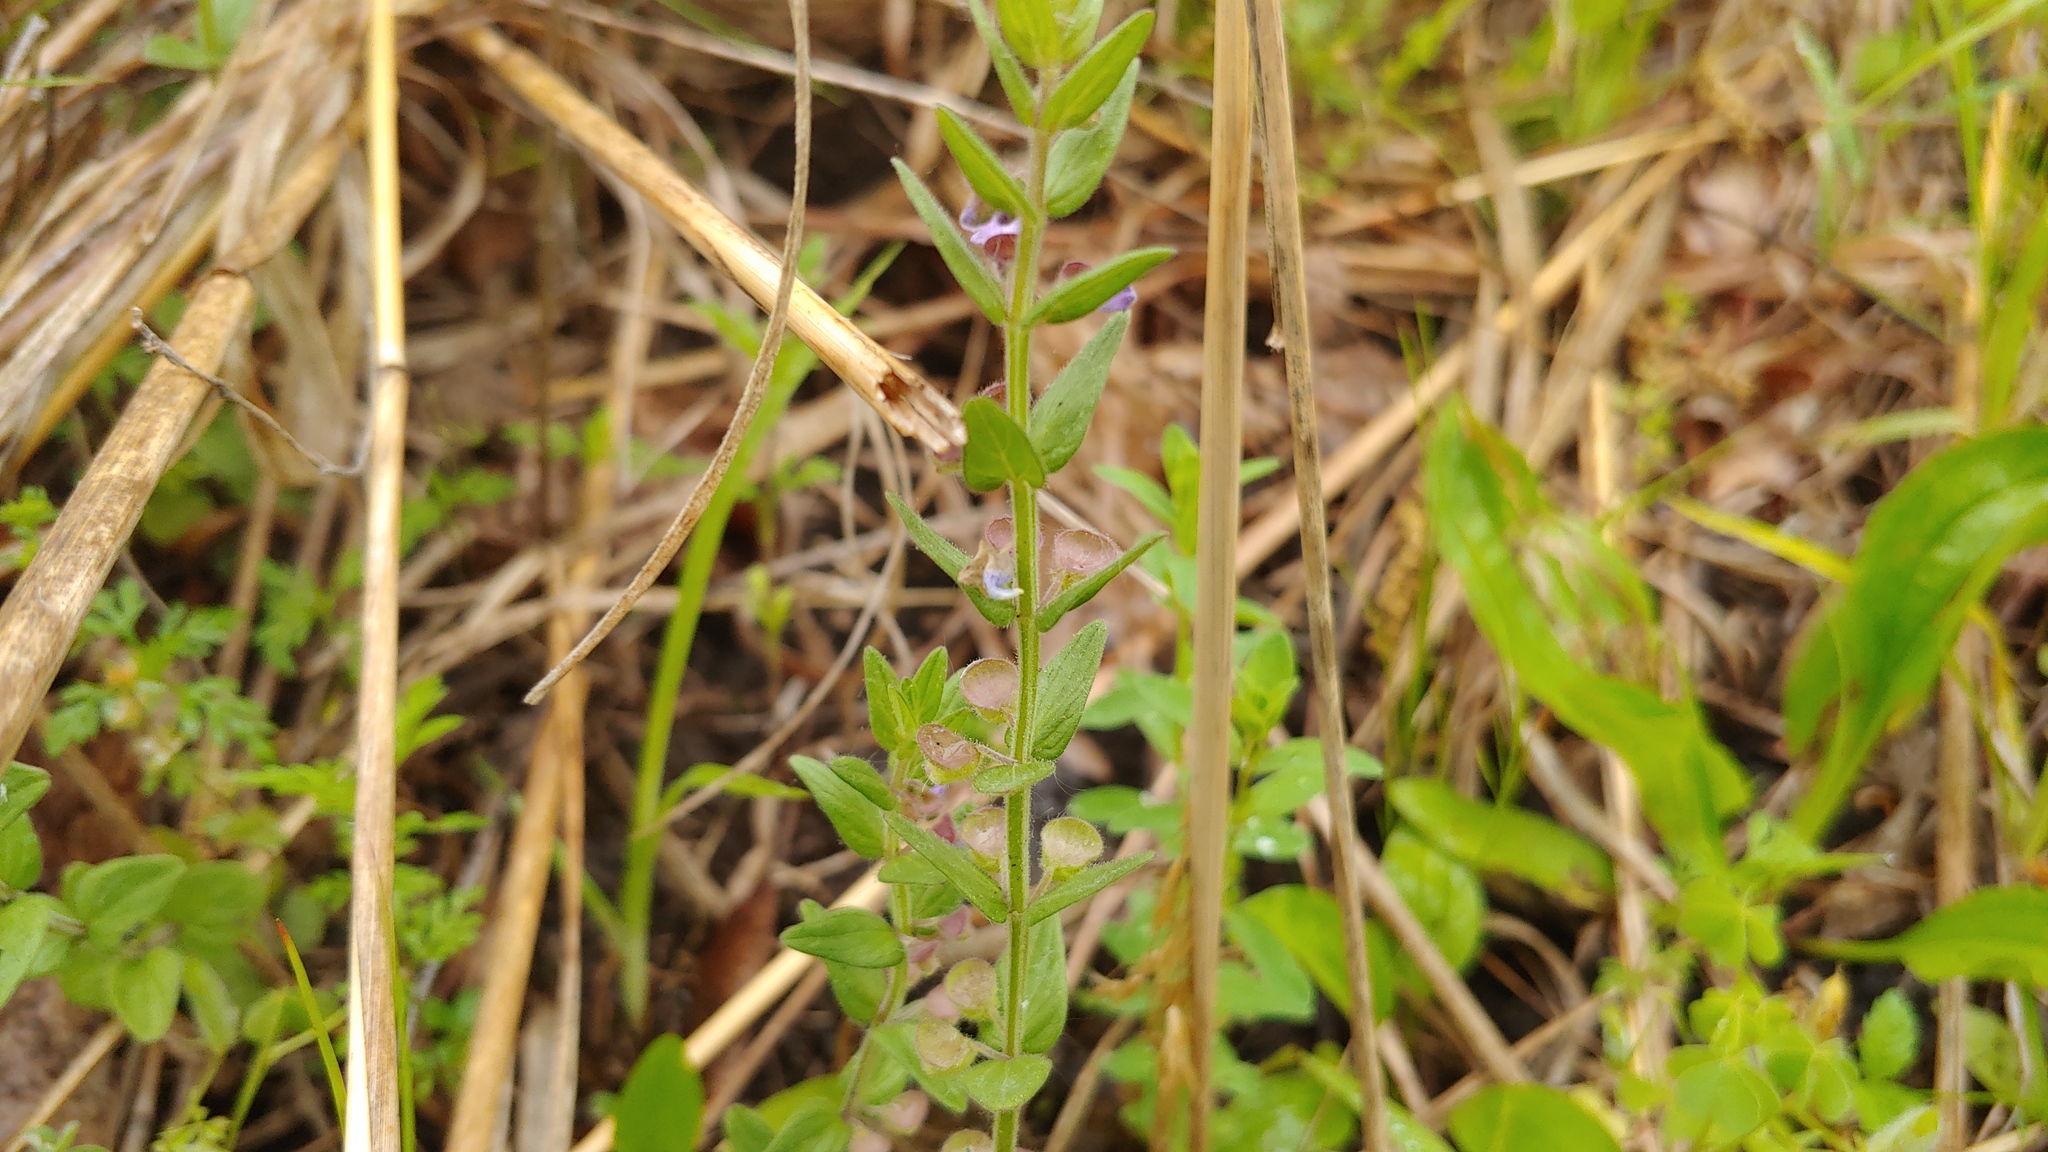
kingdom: Plantae
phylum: Tracheophyta
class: Magnoliopsida
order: Lamiales
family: Lamiaceae
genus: Scutellaria
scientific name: Scutellaria parvula
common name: Little scullcap
